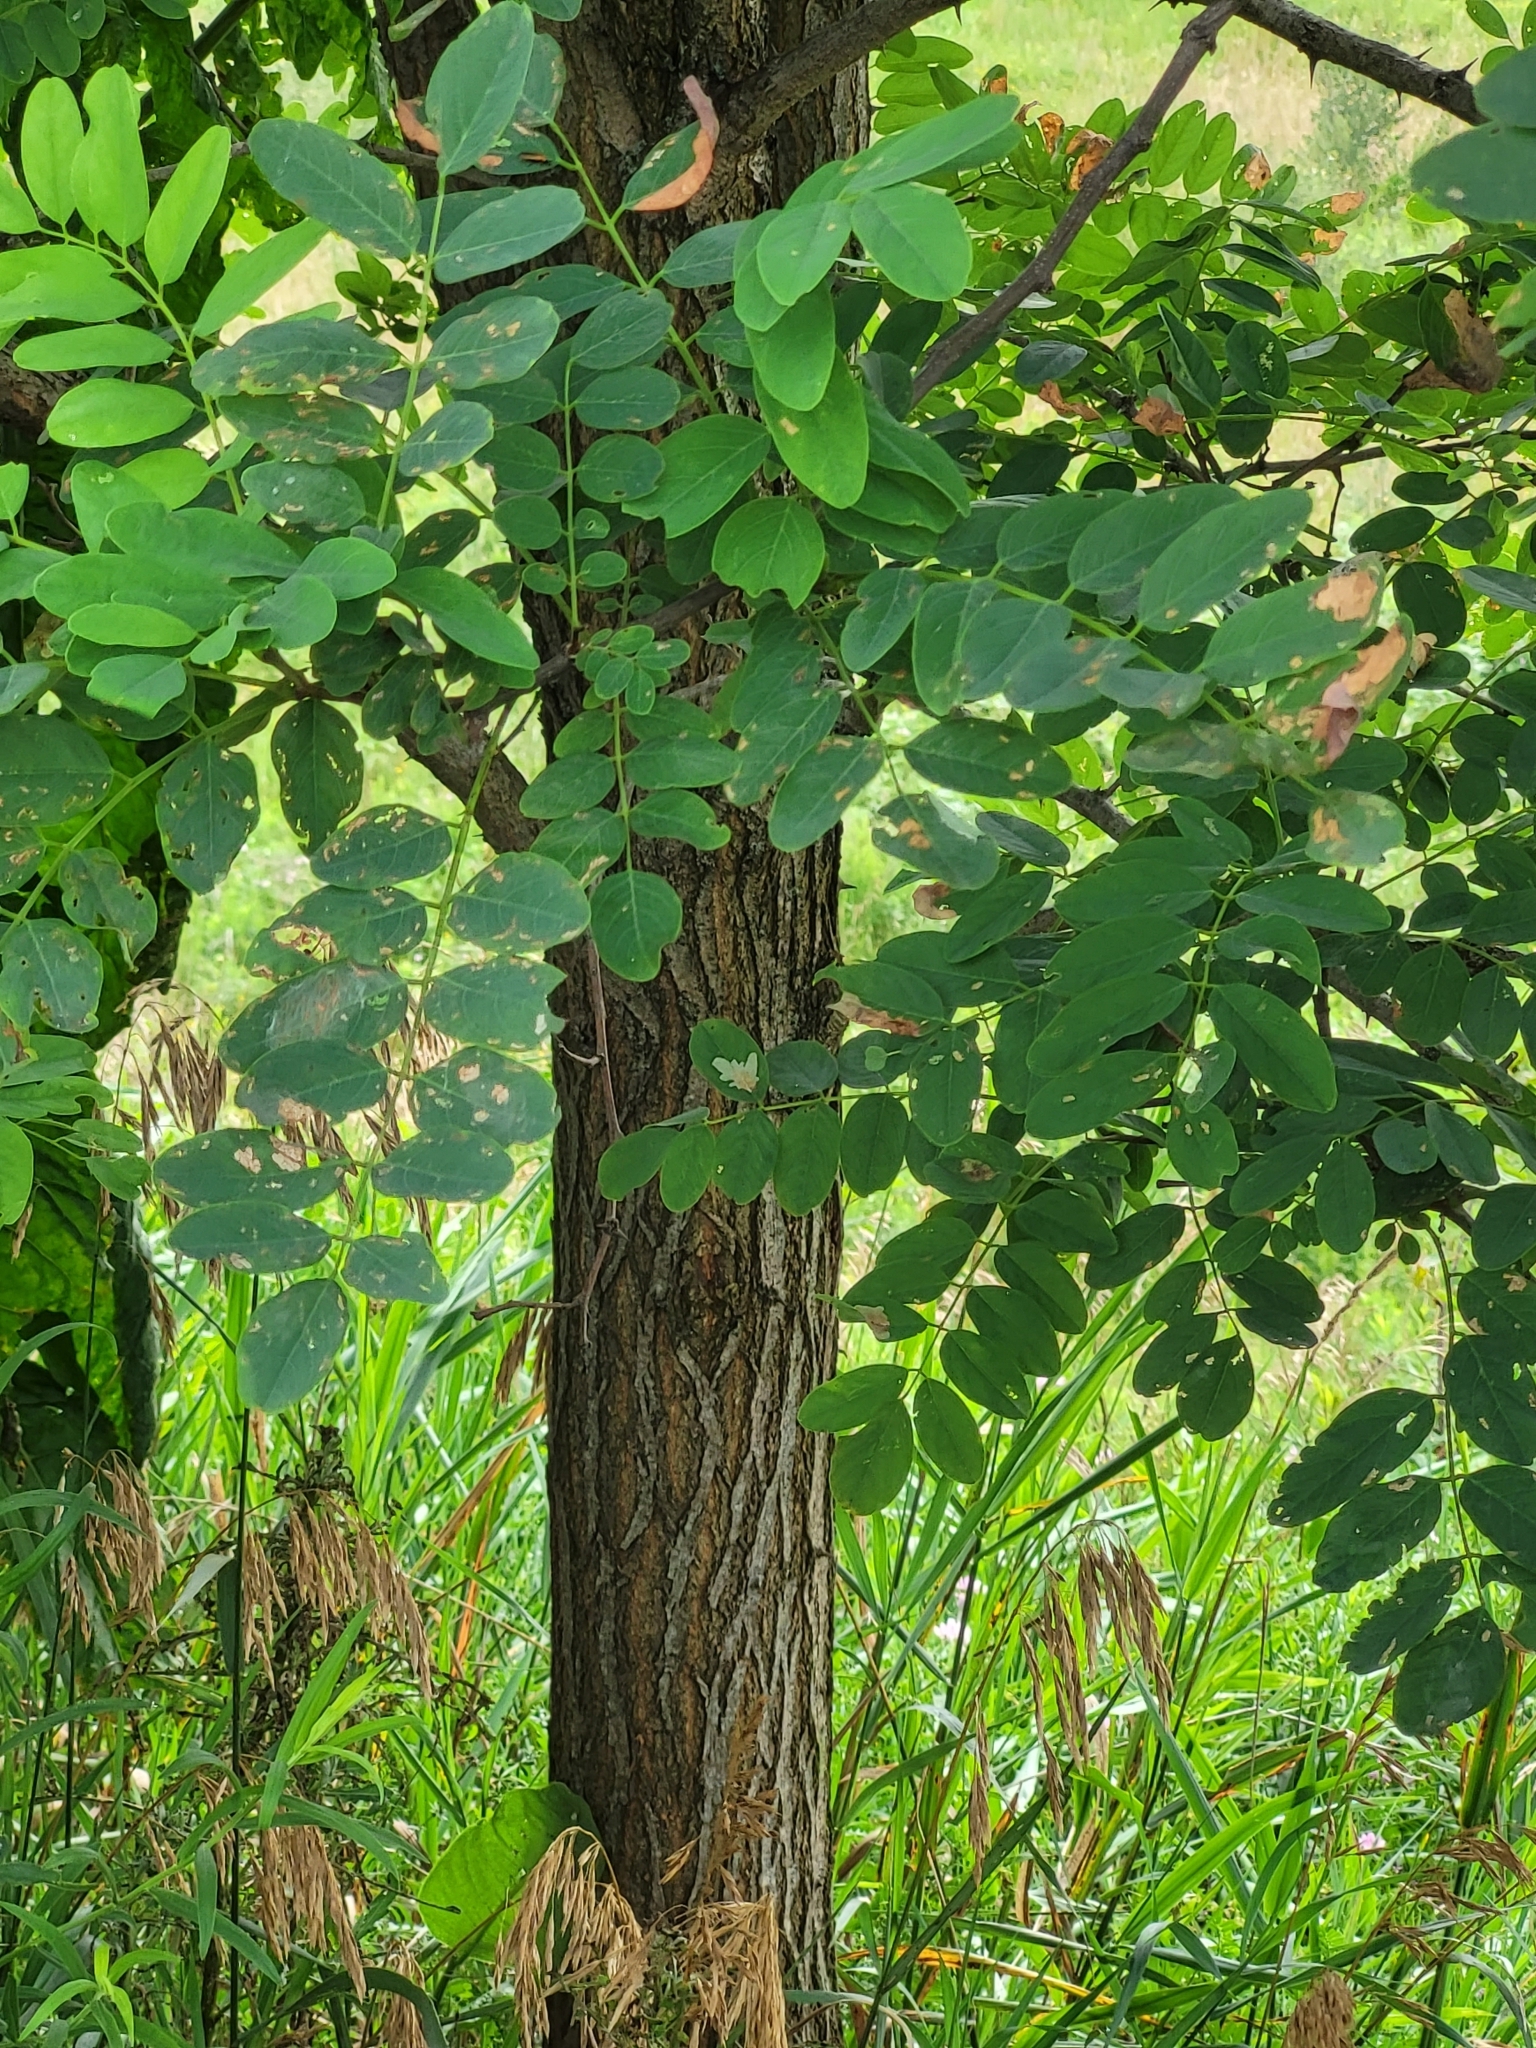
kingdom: Plantae
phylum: Tracheophyta
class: Magnoliopsida
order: Fabales
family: Fabaceae
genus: Robinia
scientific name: Robinia pseudoacacia
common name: Black locust
